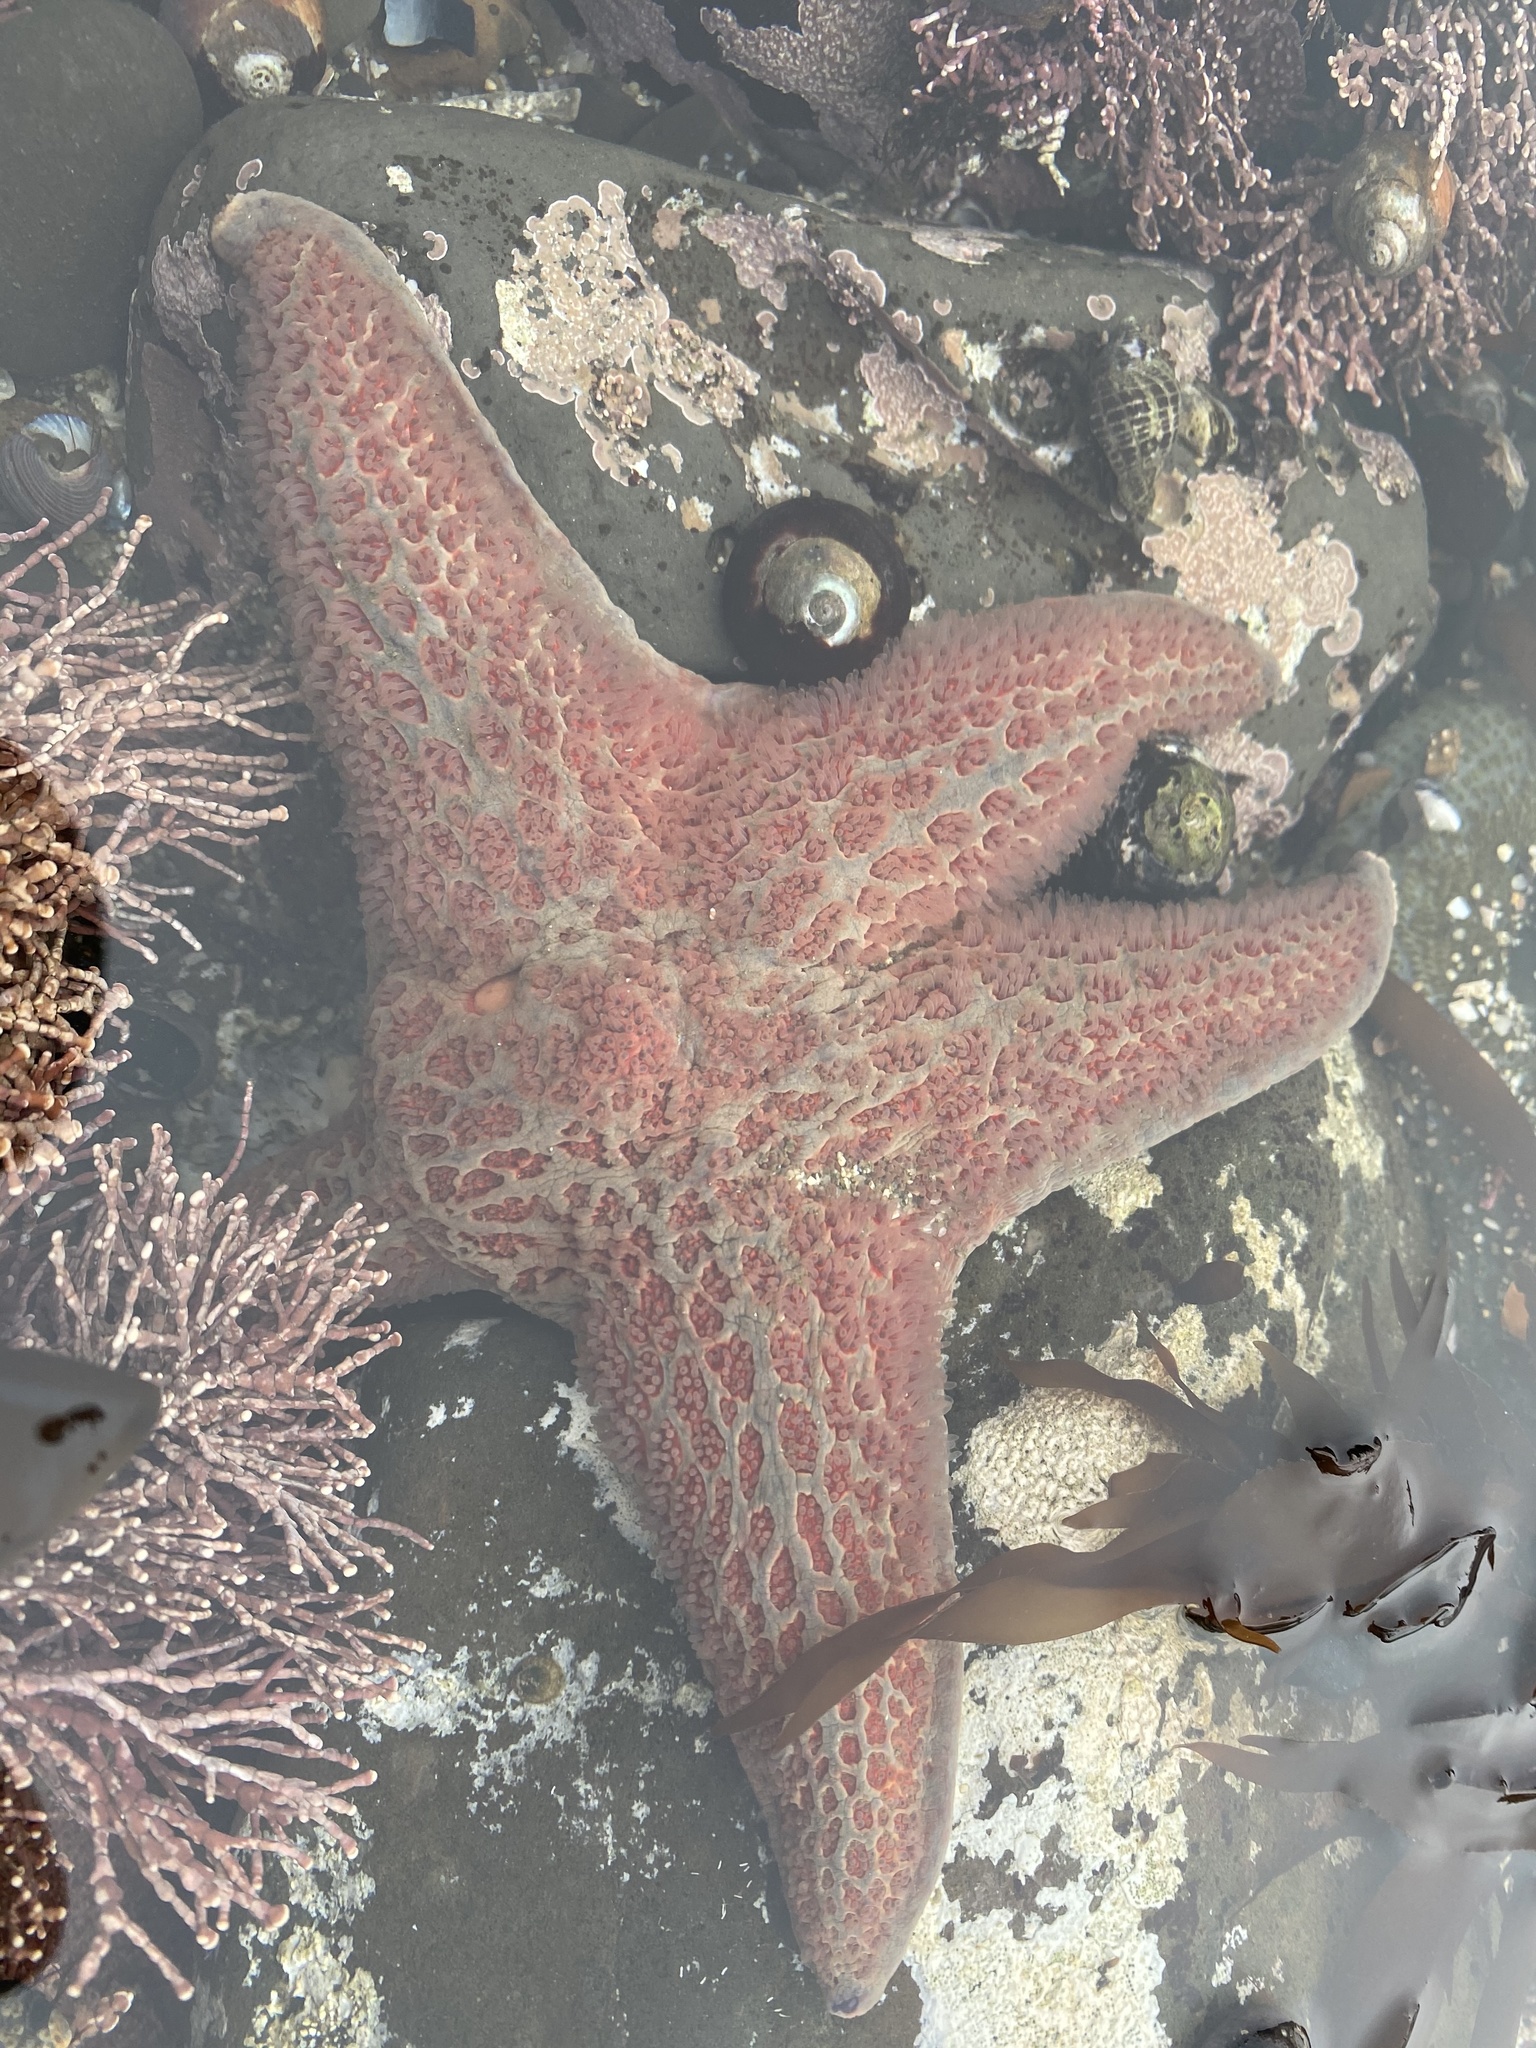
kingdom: Animalia
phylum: Echinodermata
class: Asteroidea
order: Valvatida
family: Asteropseidae
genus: Dermasterias
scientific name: Dermasterias imbricata
